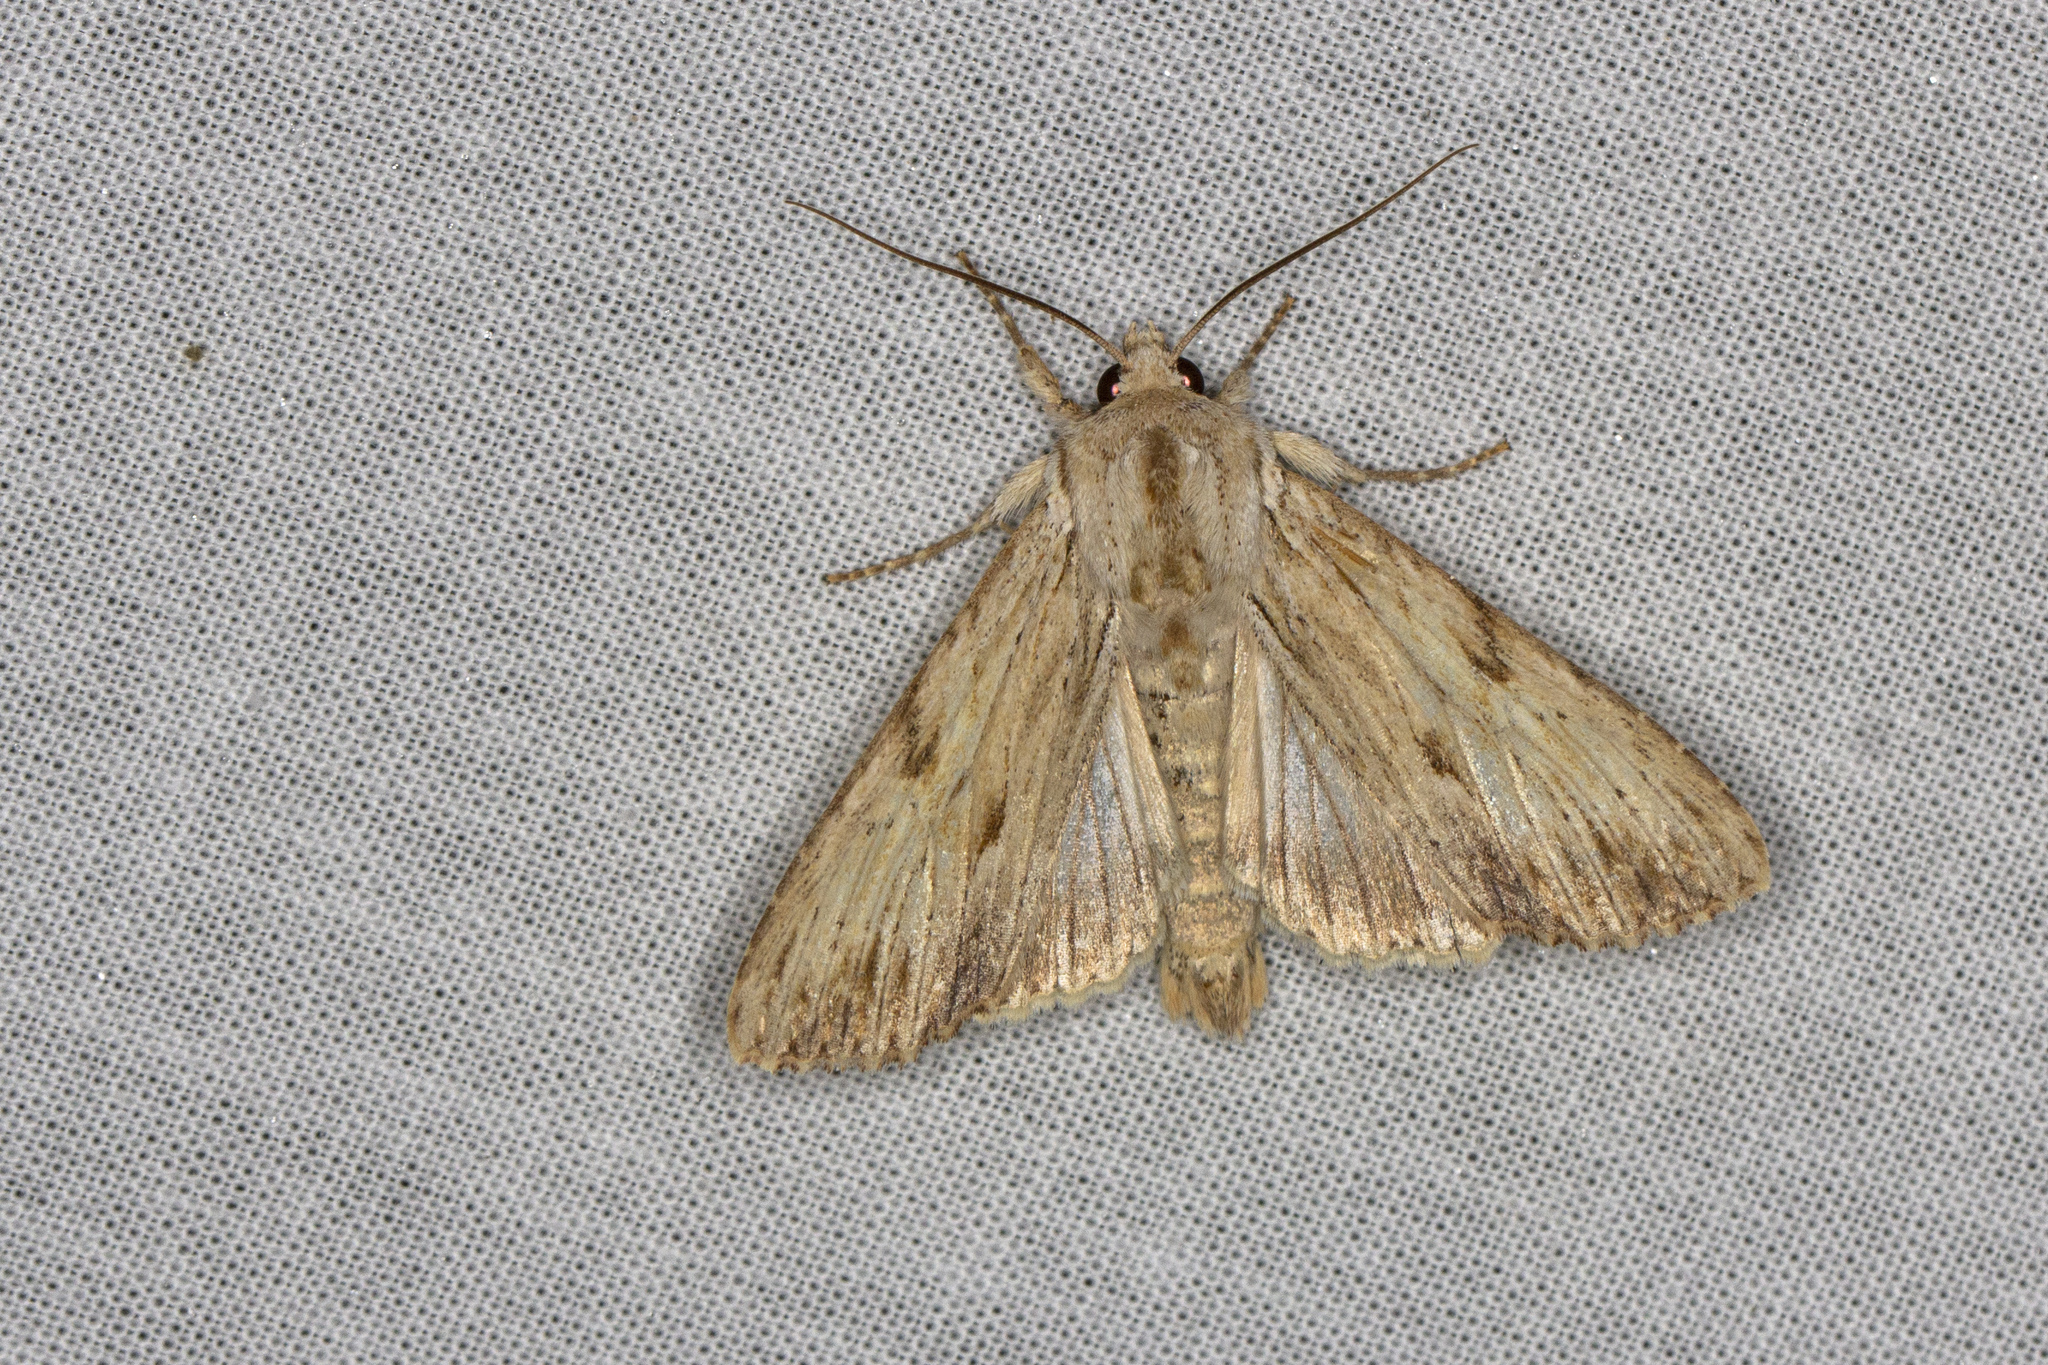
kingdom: Animalia
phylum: Arthropoda
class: Insecta
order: Lepidoptera
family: Noctuidae
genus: Apamea
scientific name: Apamea lithoxylaea
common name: Light arches
